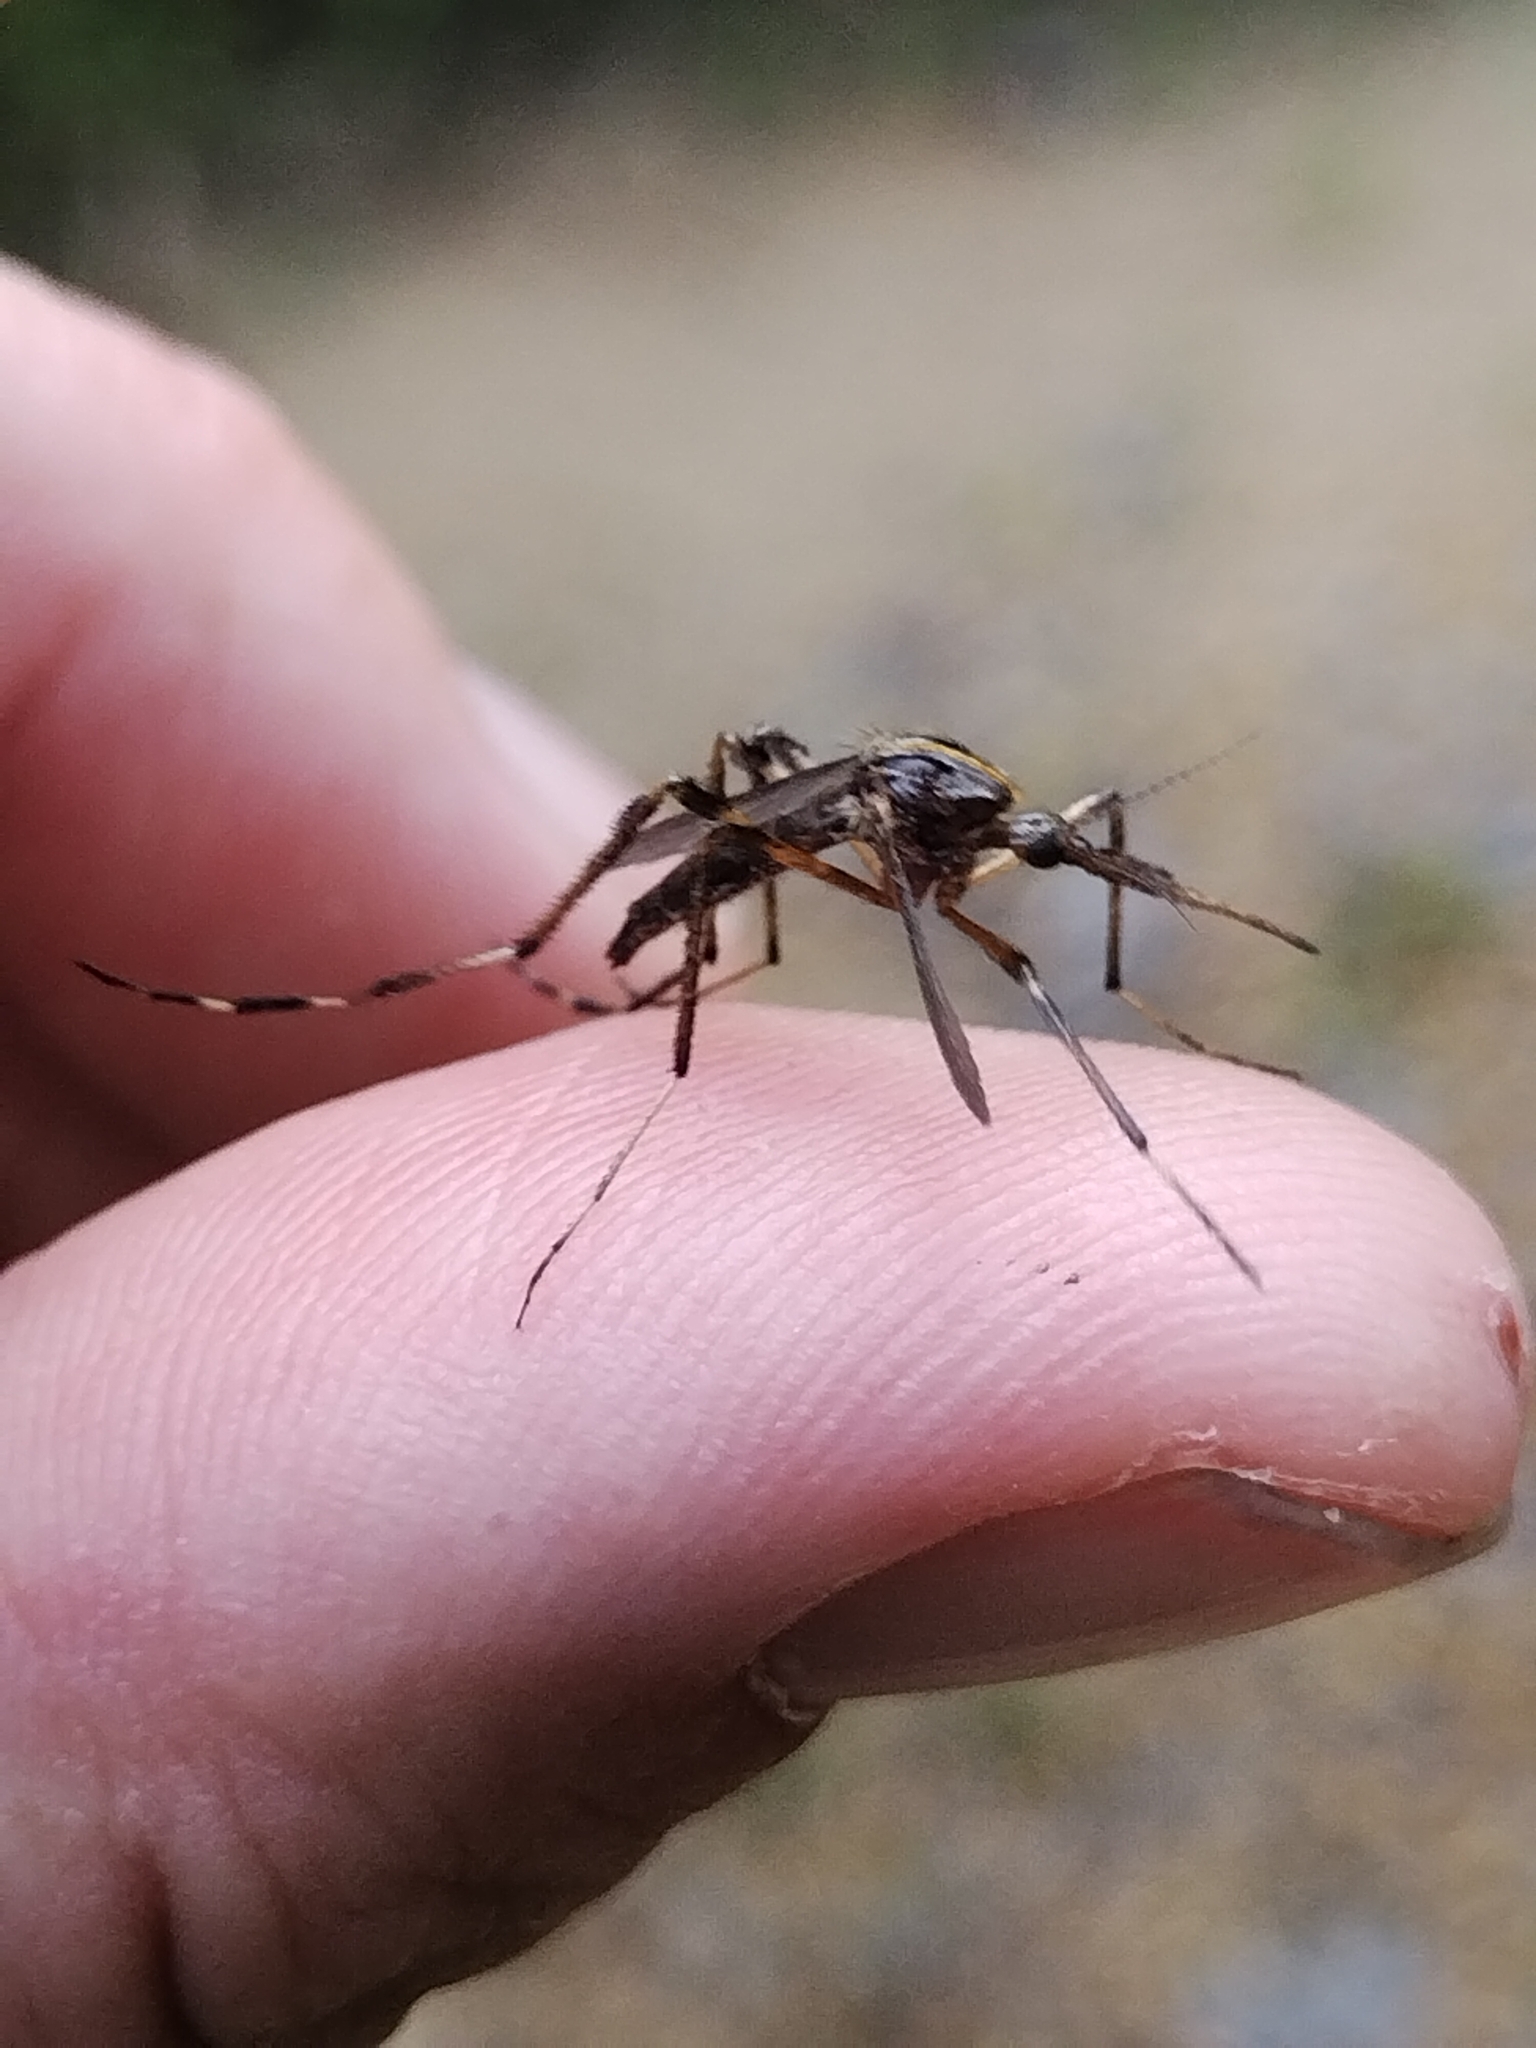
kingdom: Animalia
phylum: Arthropoda
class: Insecta
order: Diptera
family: Culicidae
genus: Psorophora
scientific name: Psorophora ciliata
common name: Gallinipper
